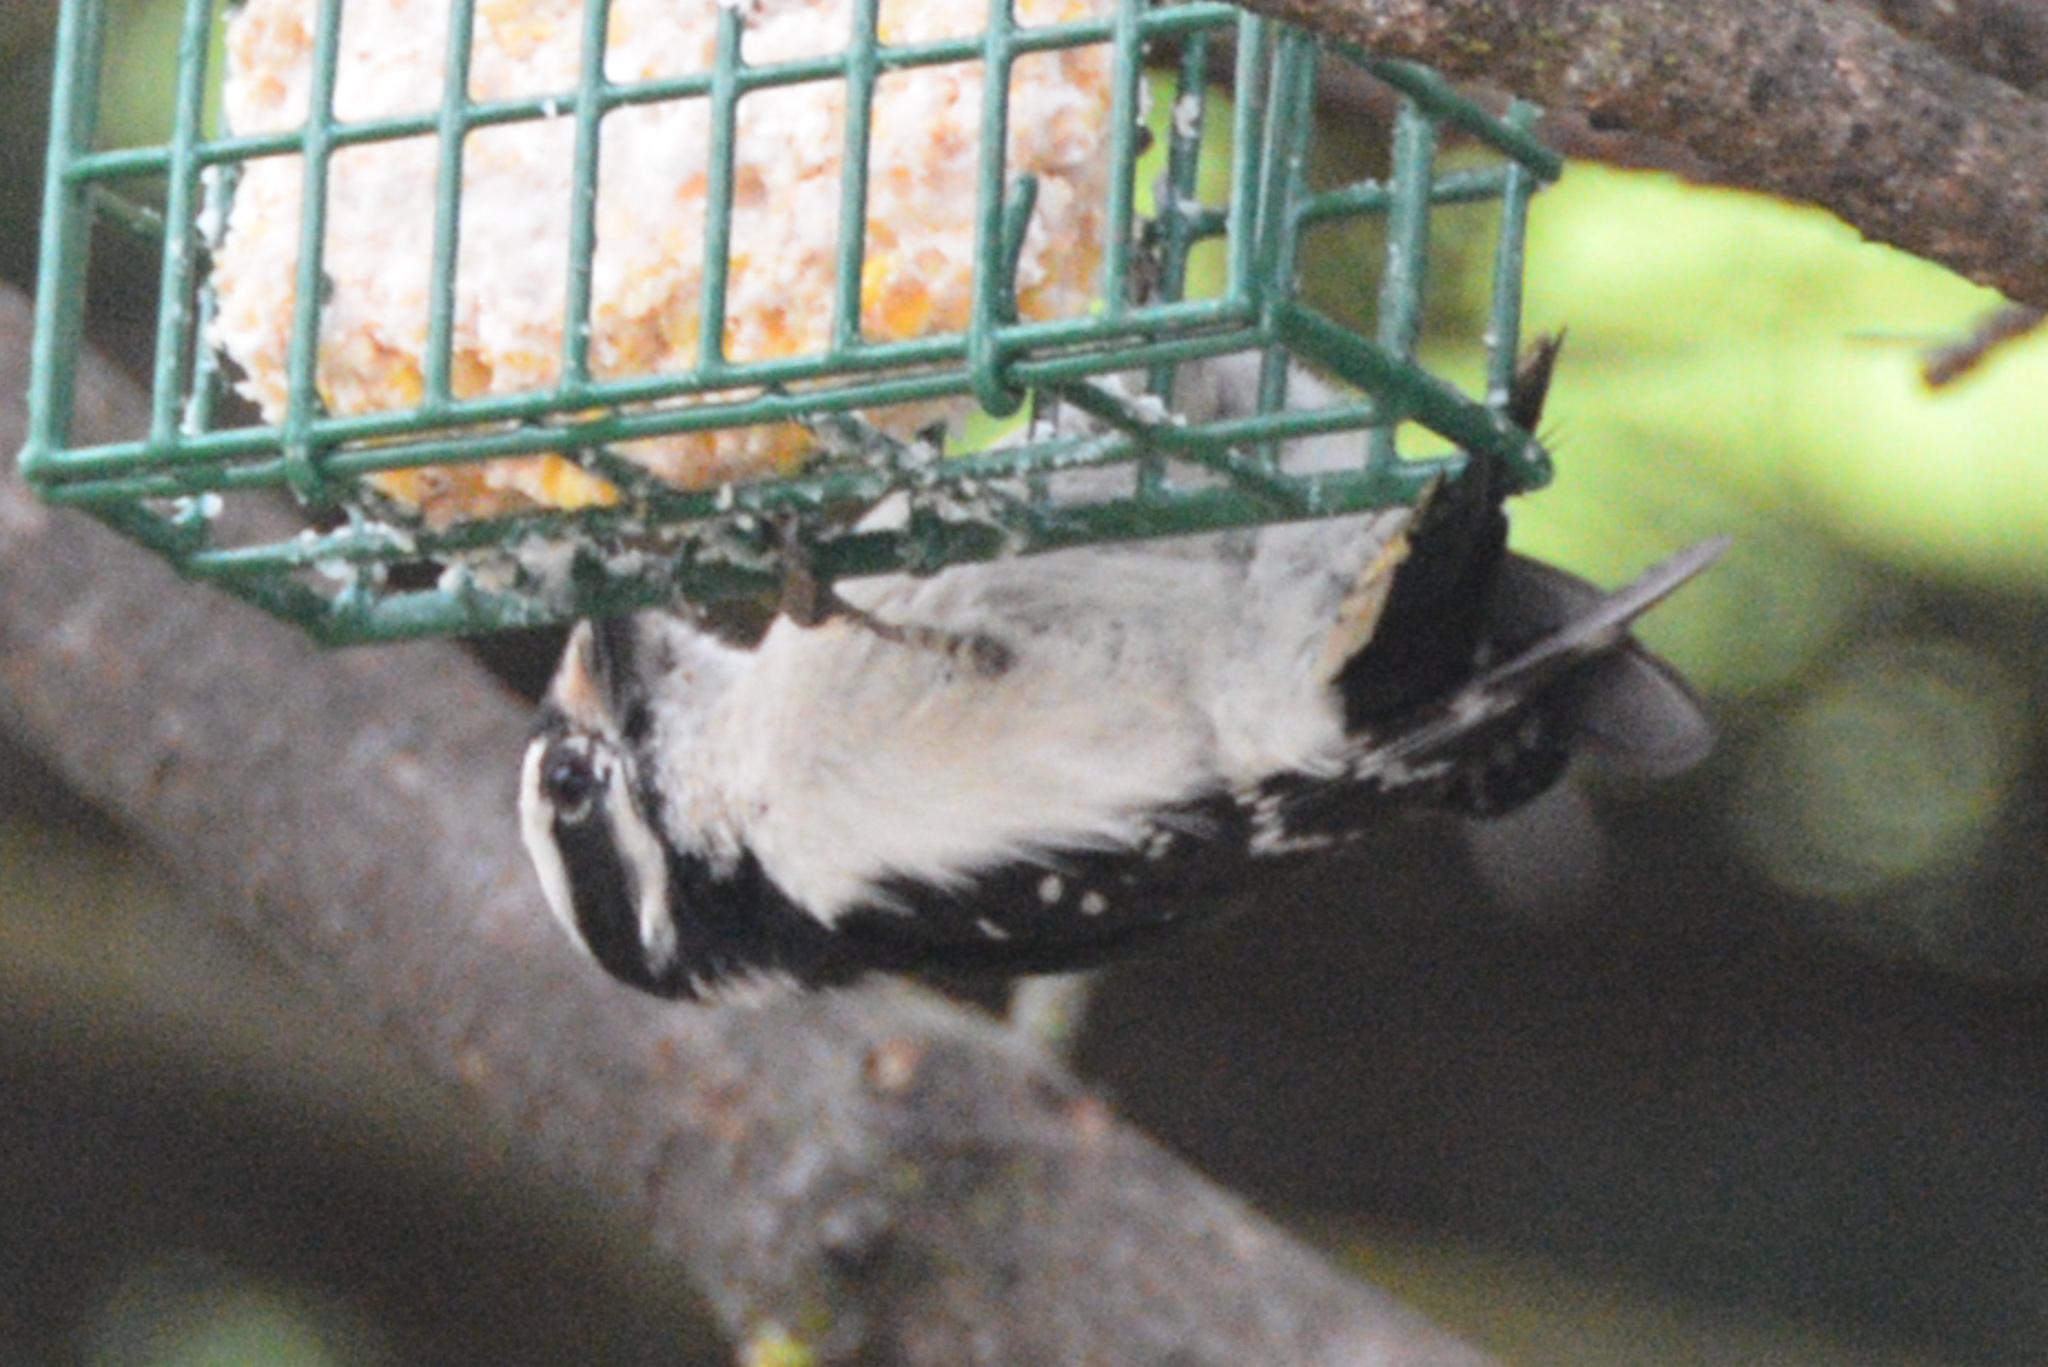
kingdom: Animalia
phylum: Chordata
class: Aves
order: Piciformes
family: Picidae
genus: Dryobates
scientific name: Dryobates pubescens
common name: Downy woodpecker
